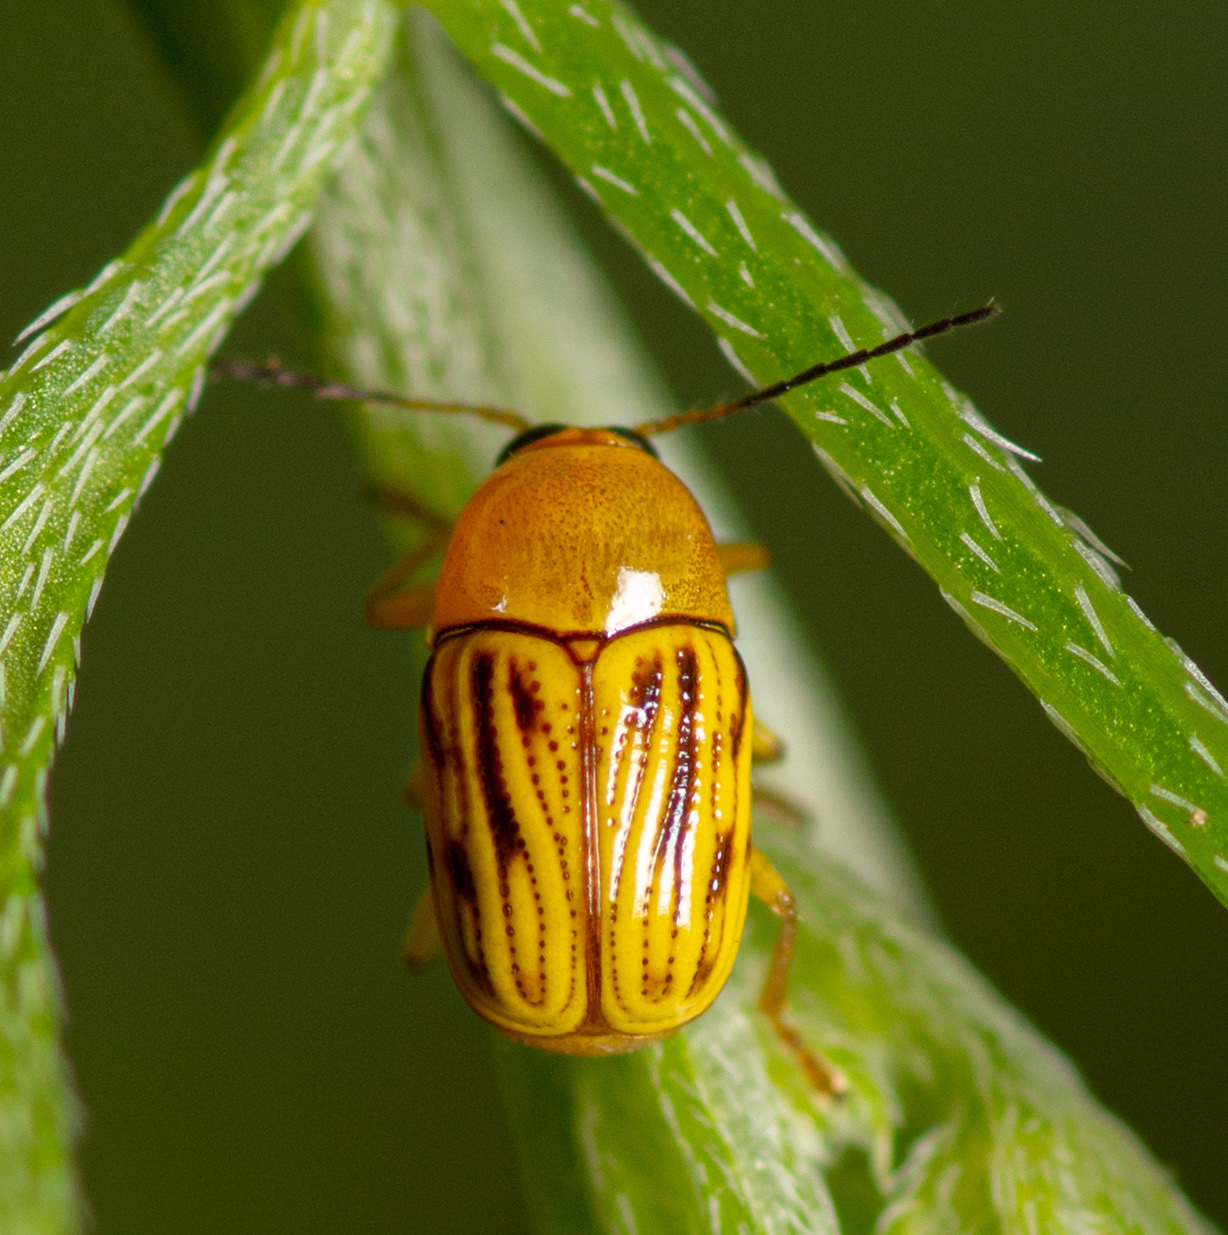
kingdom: Animalia
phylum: Arthropoda
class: Insecta
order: Coleoptera
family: Chrysomelidae
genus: Cryptocephalus
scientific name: Cryptocephalus defectus
